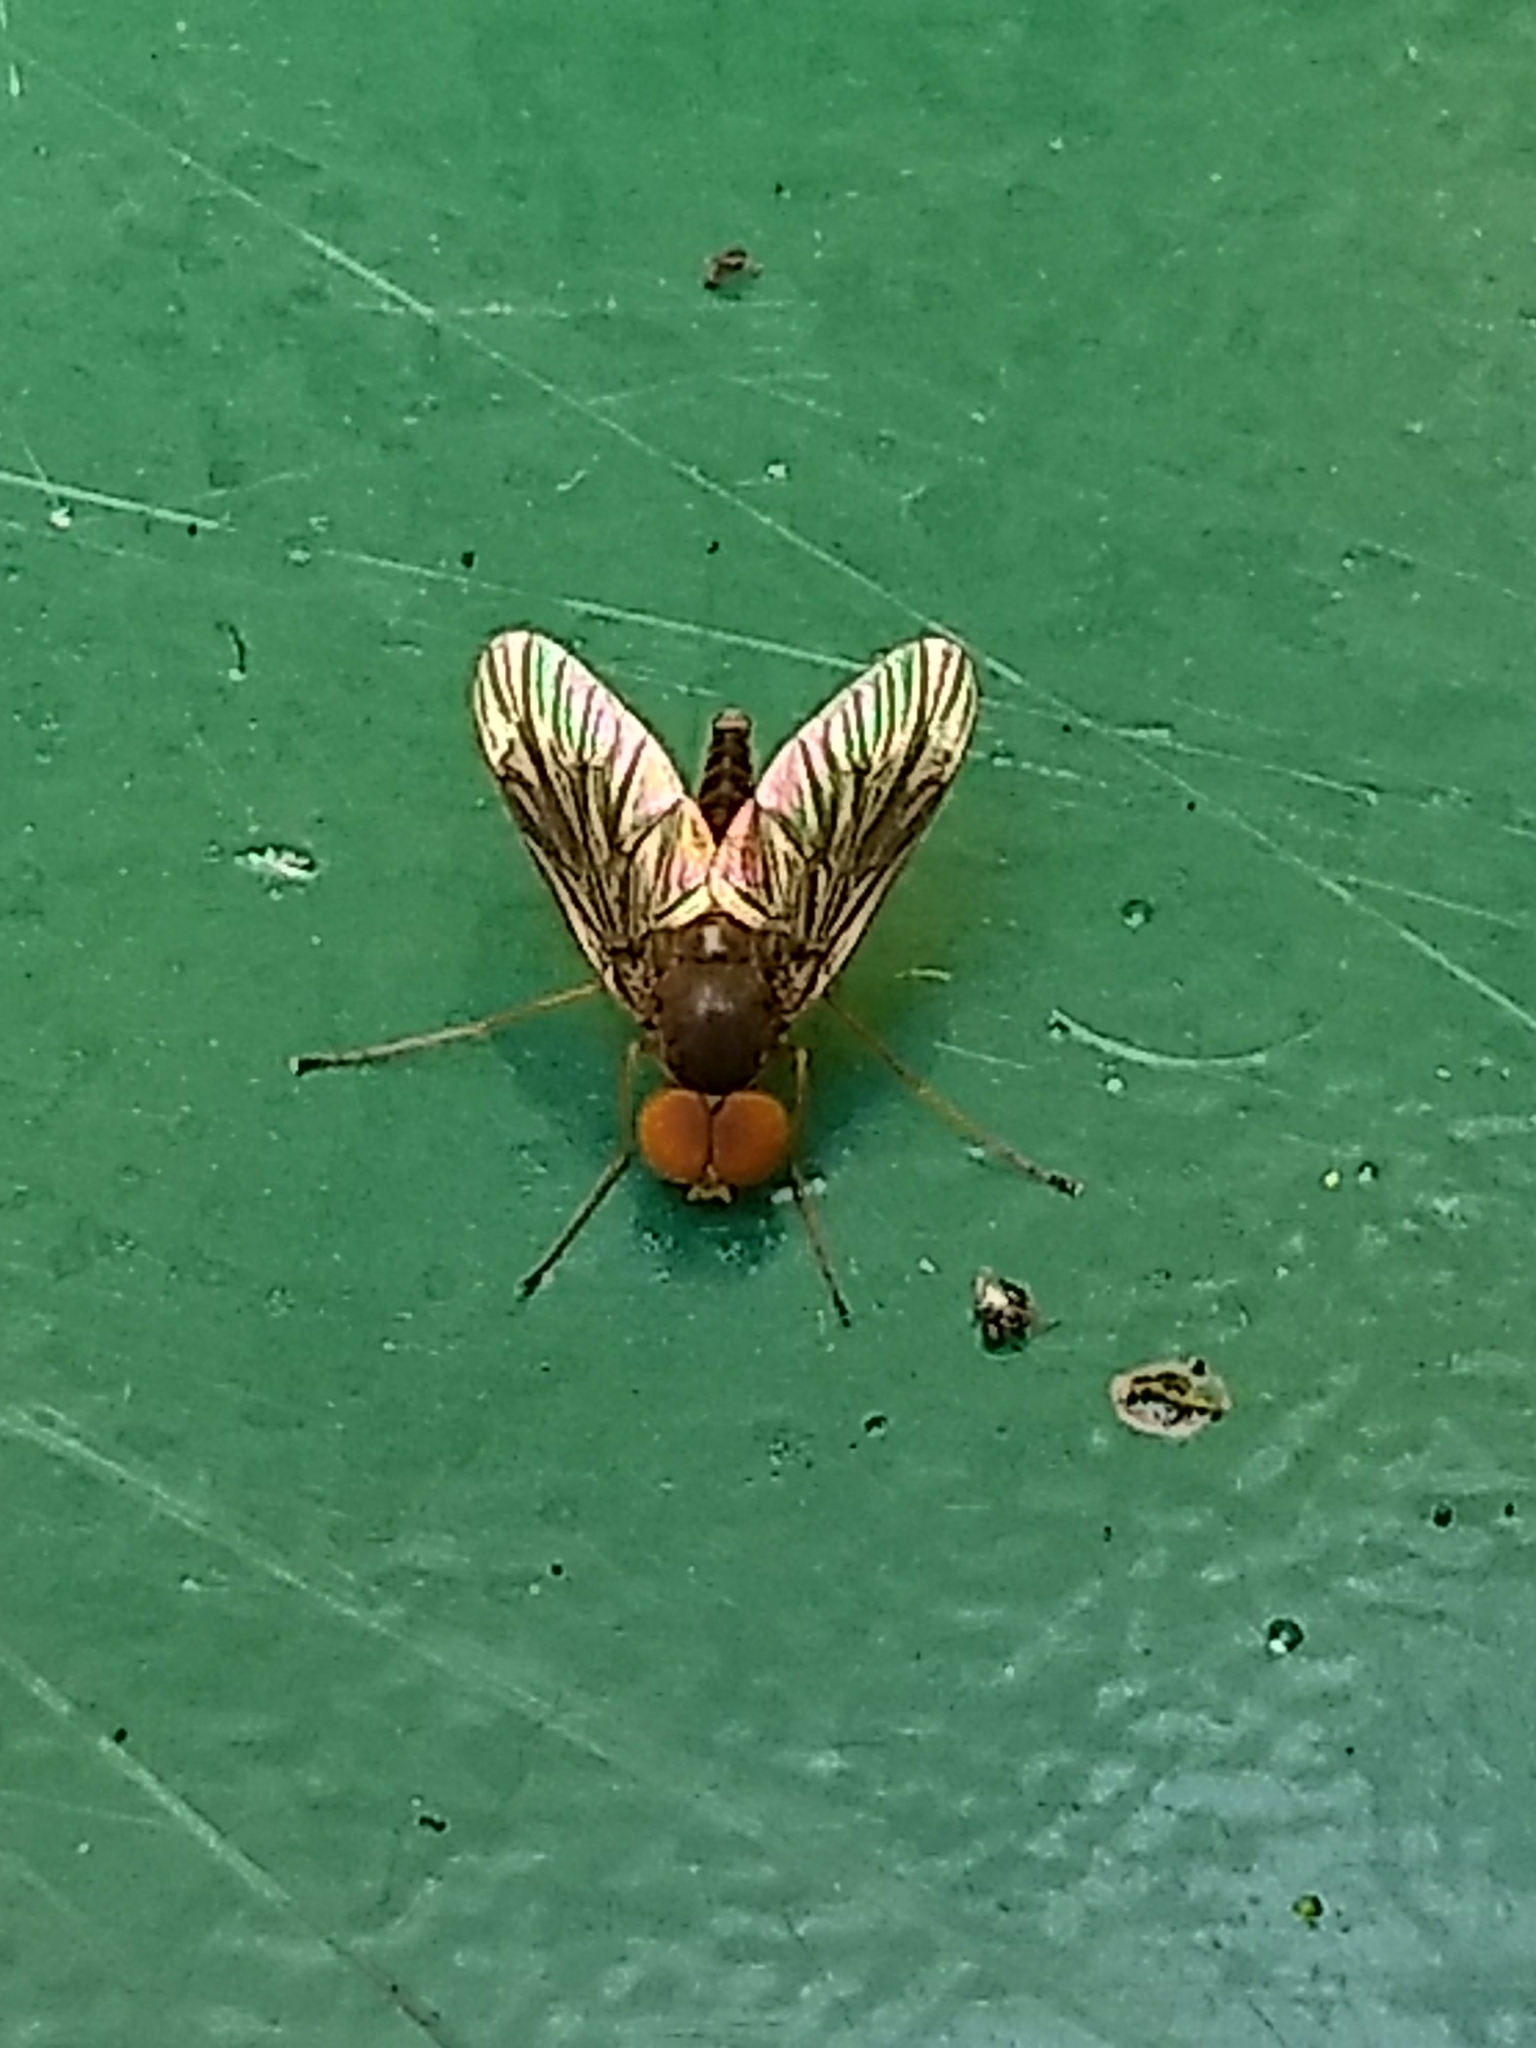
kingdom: Animalia
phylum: Arthropoda
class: Insecta
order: Diptera
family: Rhagionidae
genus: Chrysopilus
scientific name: Chrysopilus quadratus
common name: Quadrate snipe fly
